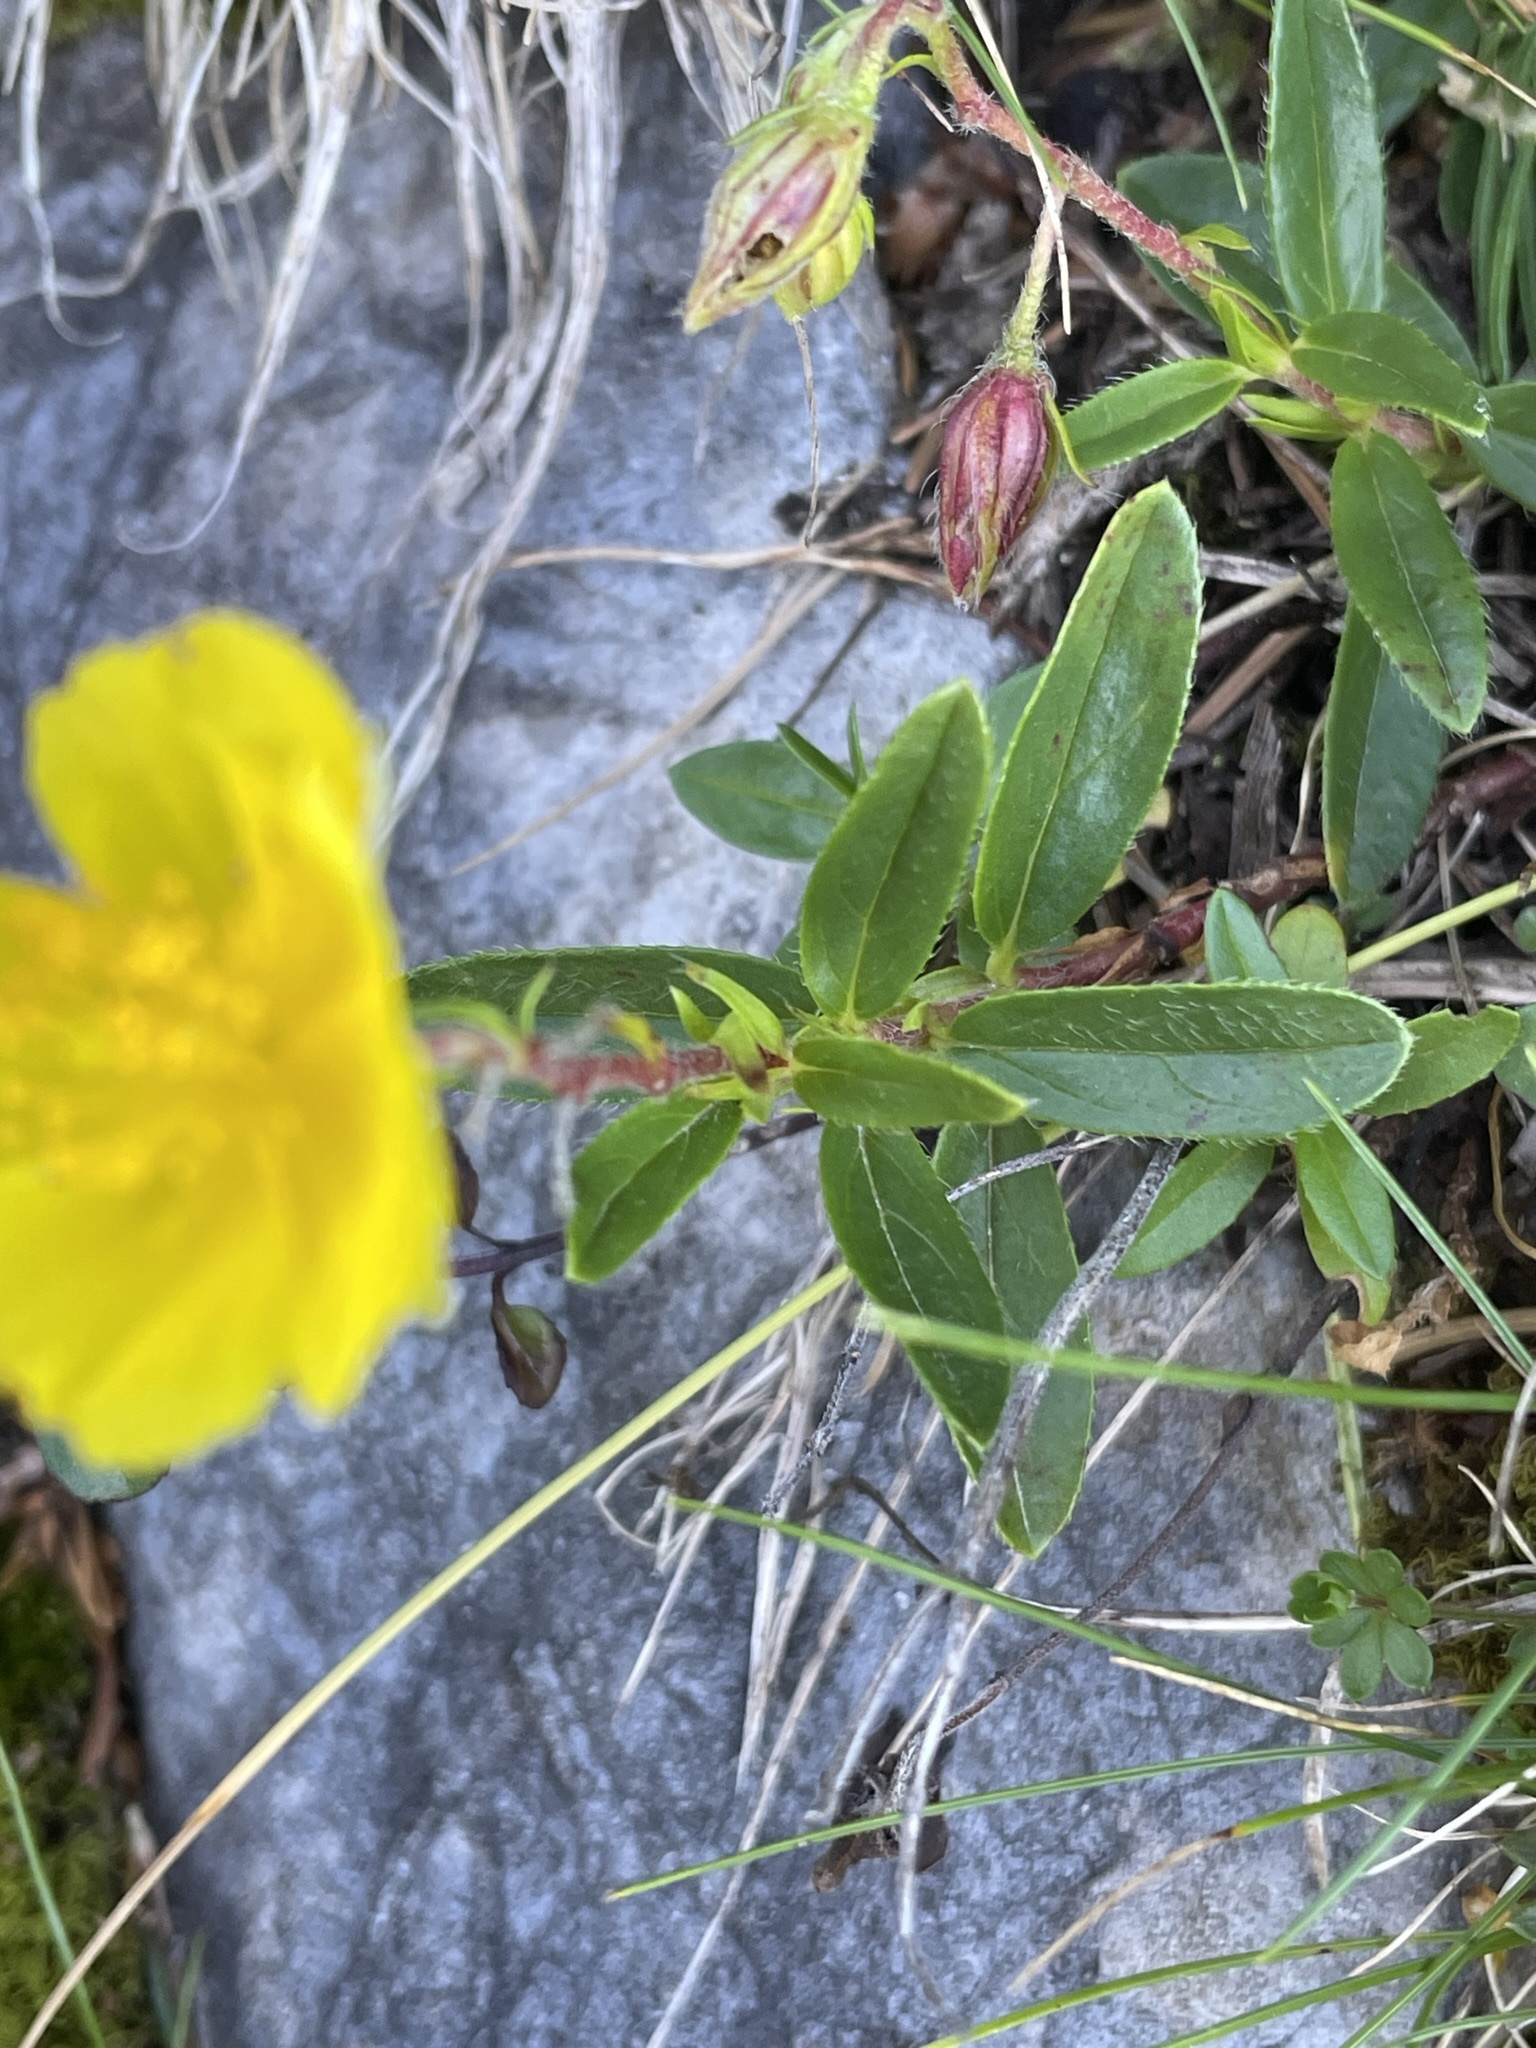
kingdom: Plantae
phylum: Tracheophyta
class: Magnoliopsida
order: Malvales
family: Cistaceae
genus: Helianthemum
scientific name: Helianthemum nummularium
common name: Common rock-rose
